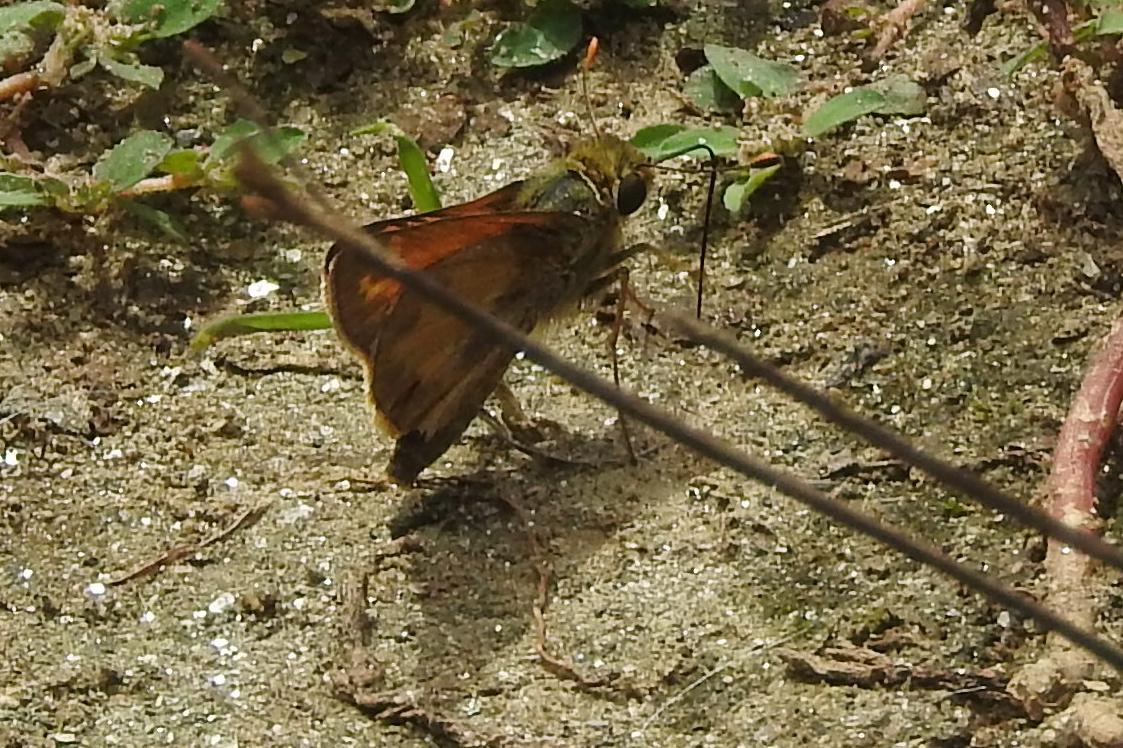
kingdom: Animalia
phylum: Arthropoda
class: Insecta
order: Lepidoptera
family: Hesperiidae
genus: Atalopedes
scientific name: Atalopedes
